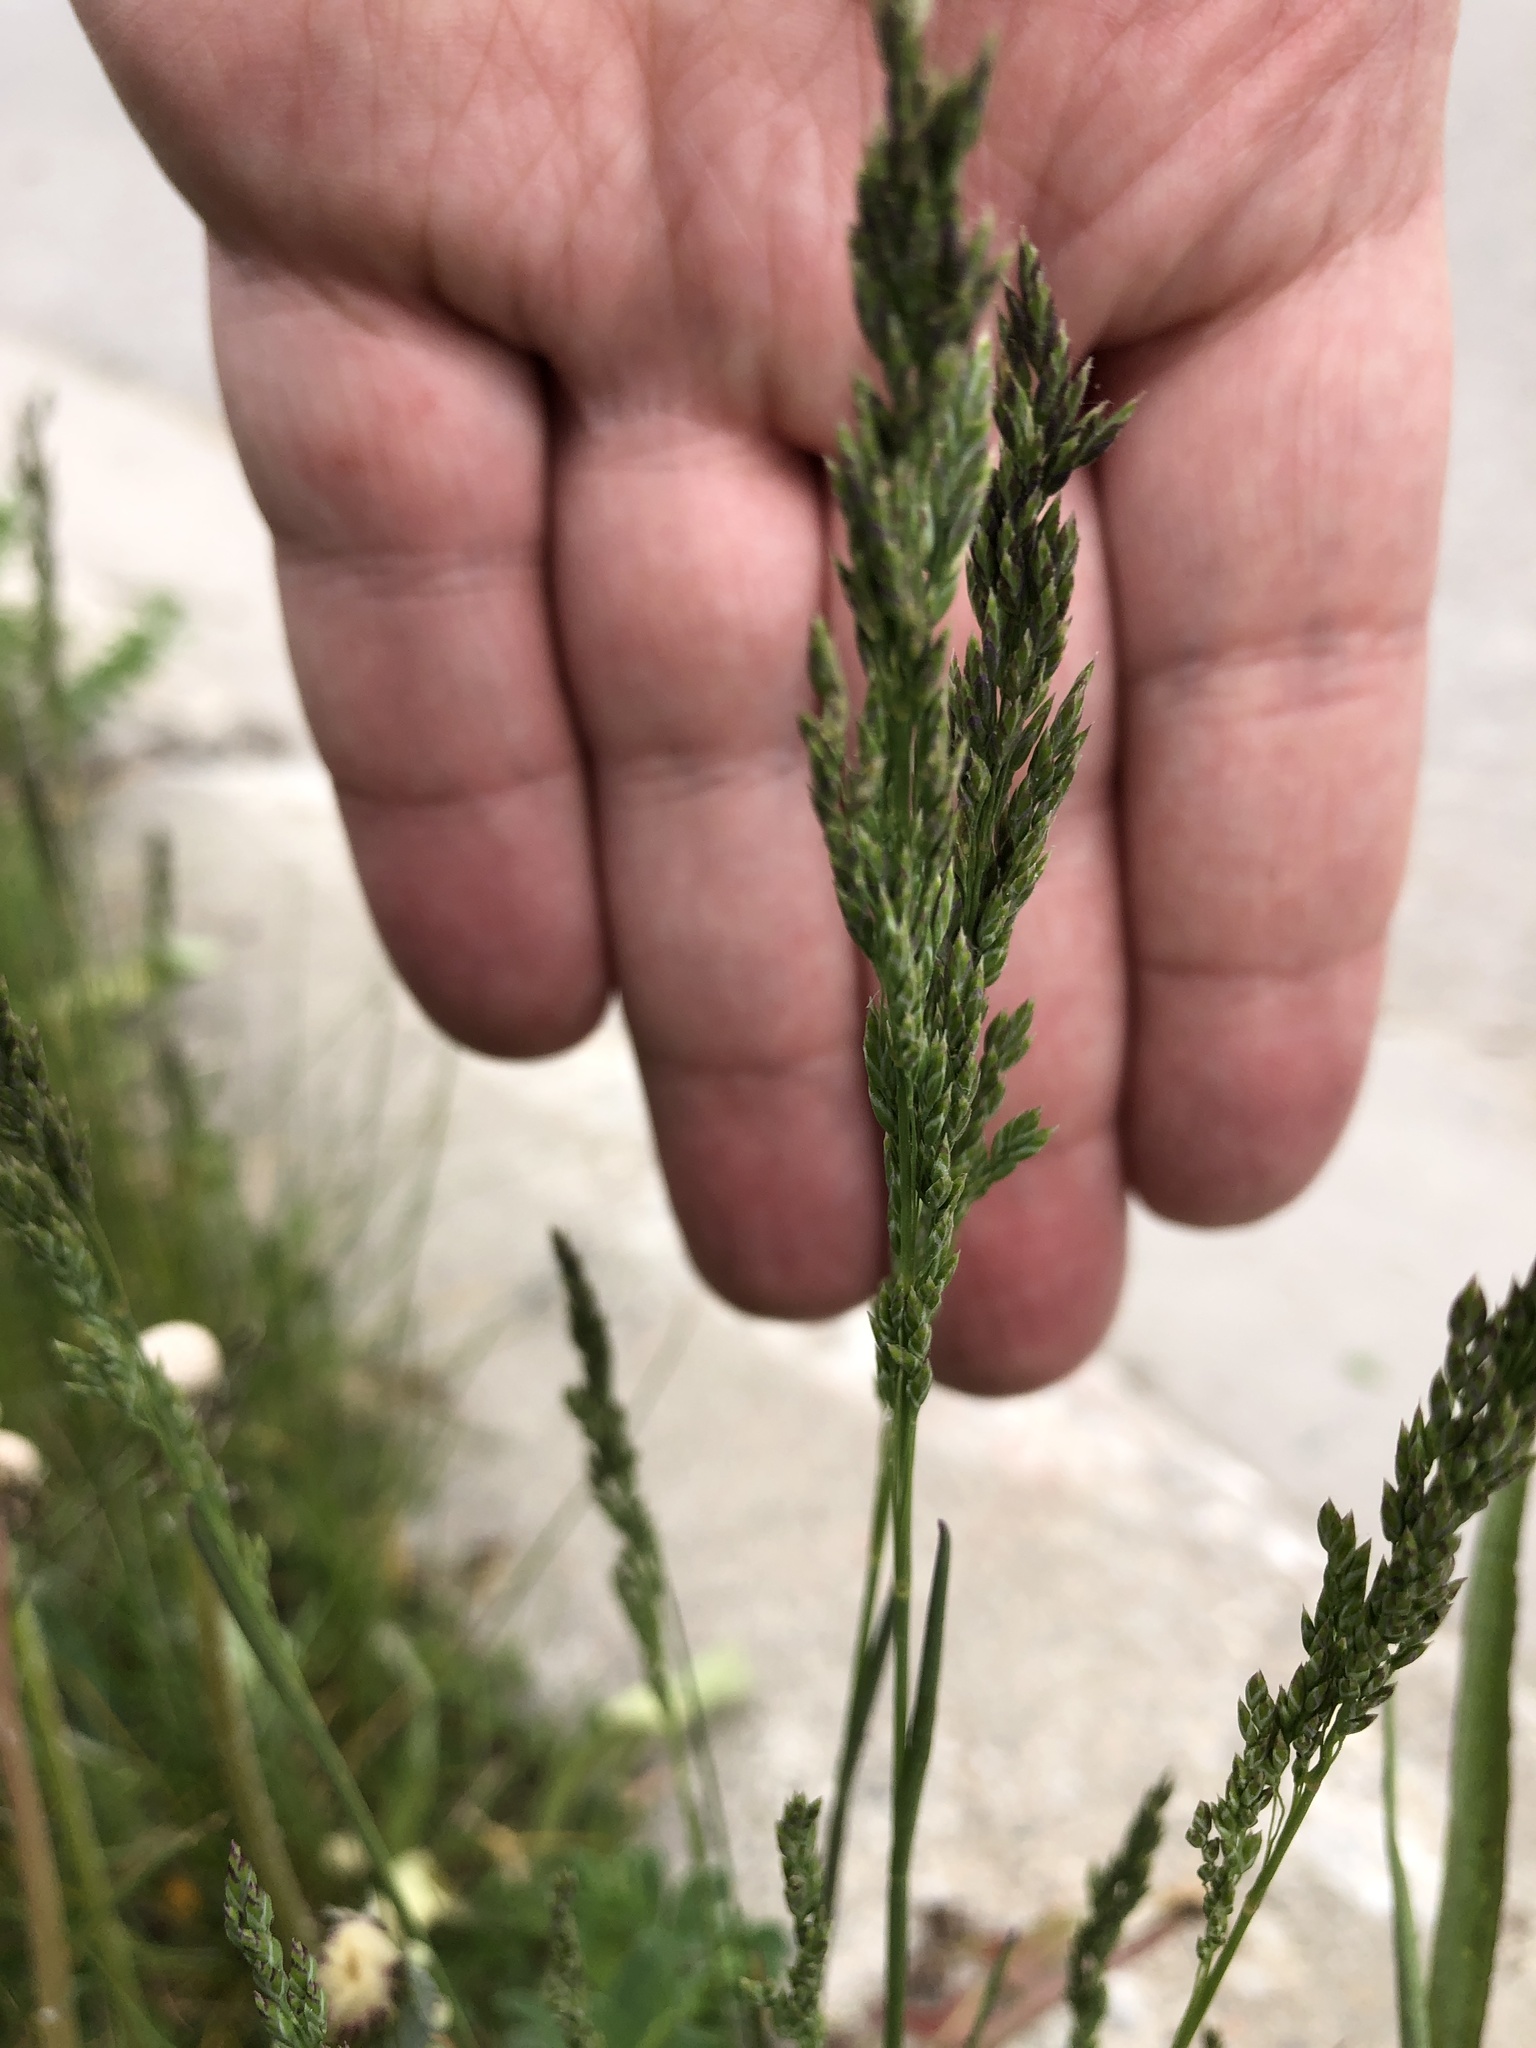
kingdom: Plantae
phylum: Tracheophyta
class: Liliopsida
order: Poales
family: Poaceae
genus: Poa
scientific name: Poa pratensis
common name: Kentucky bluegrass
